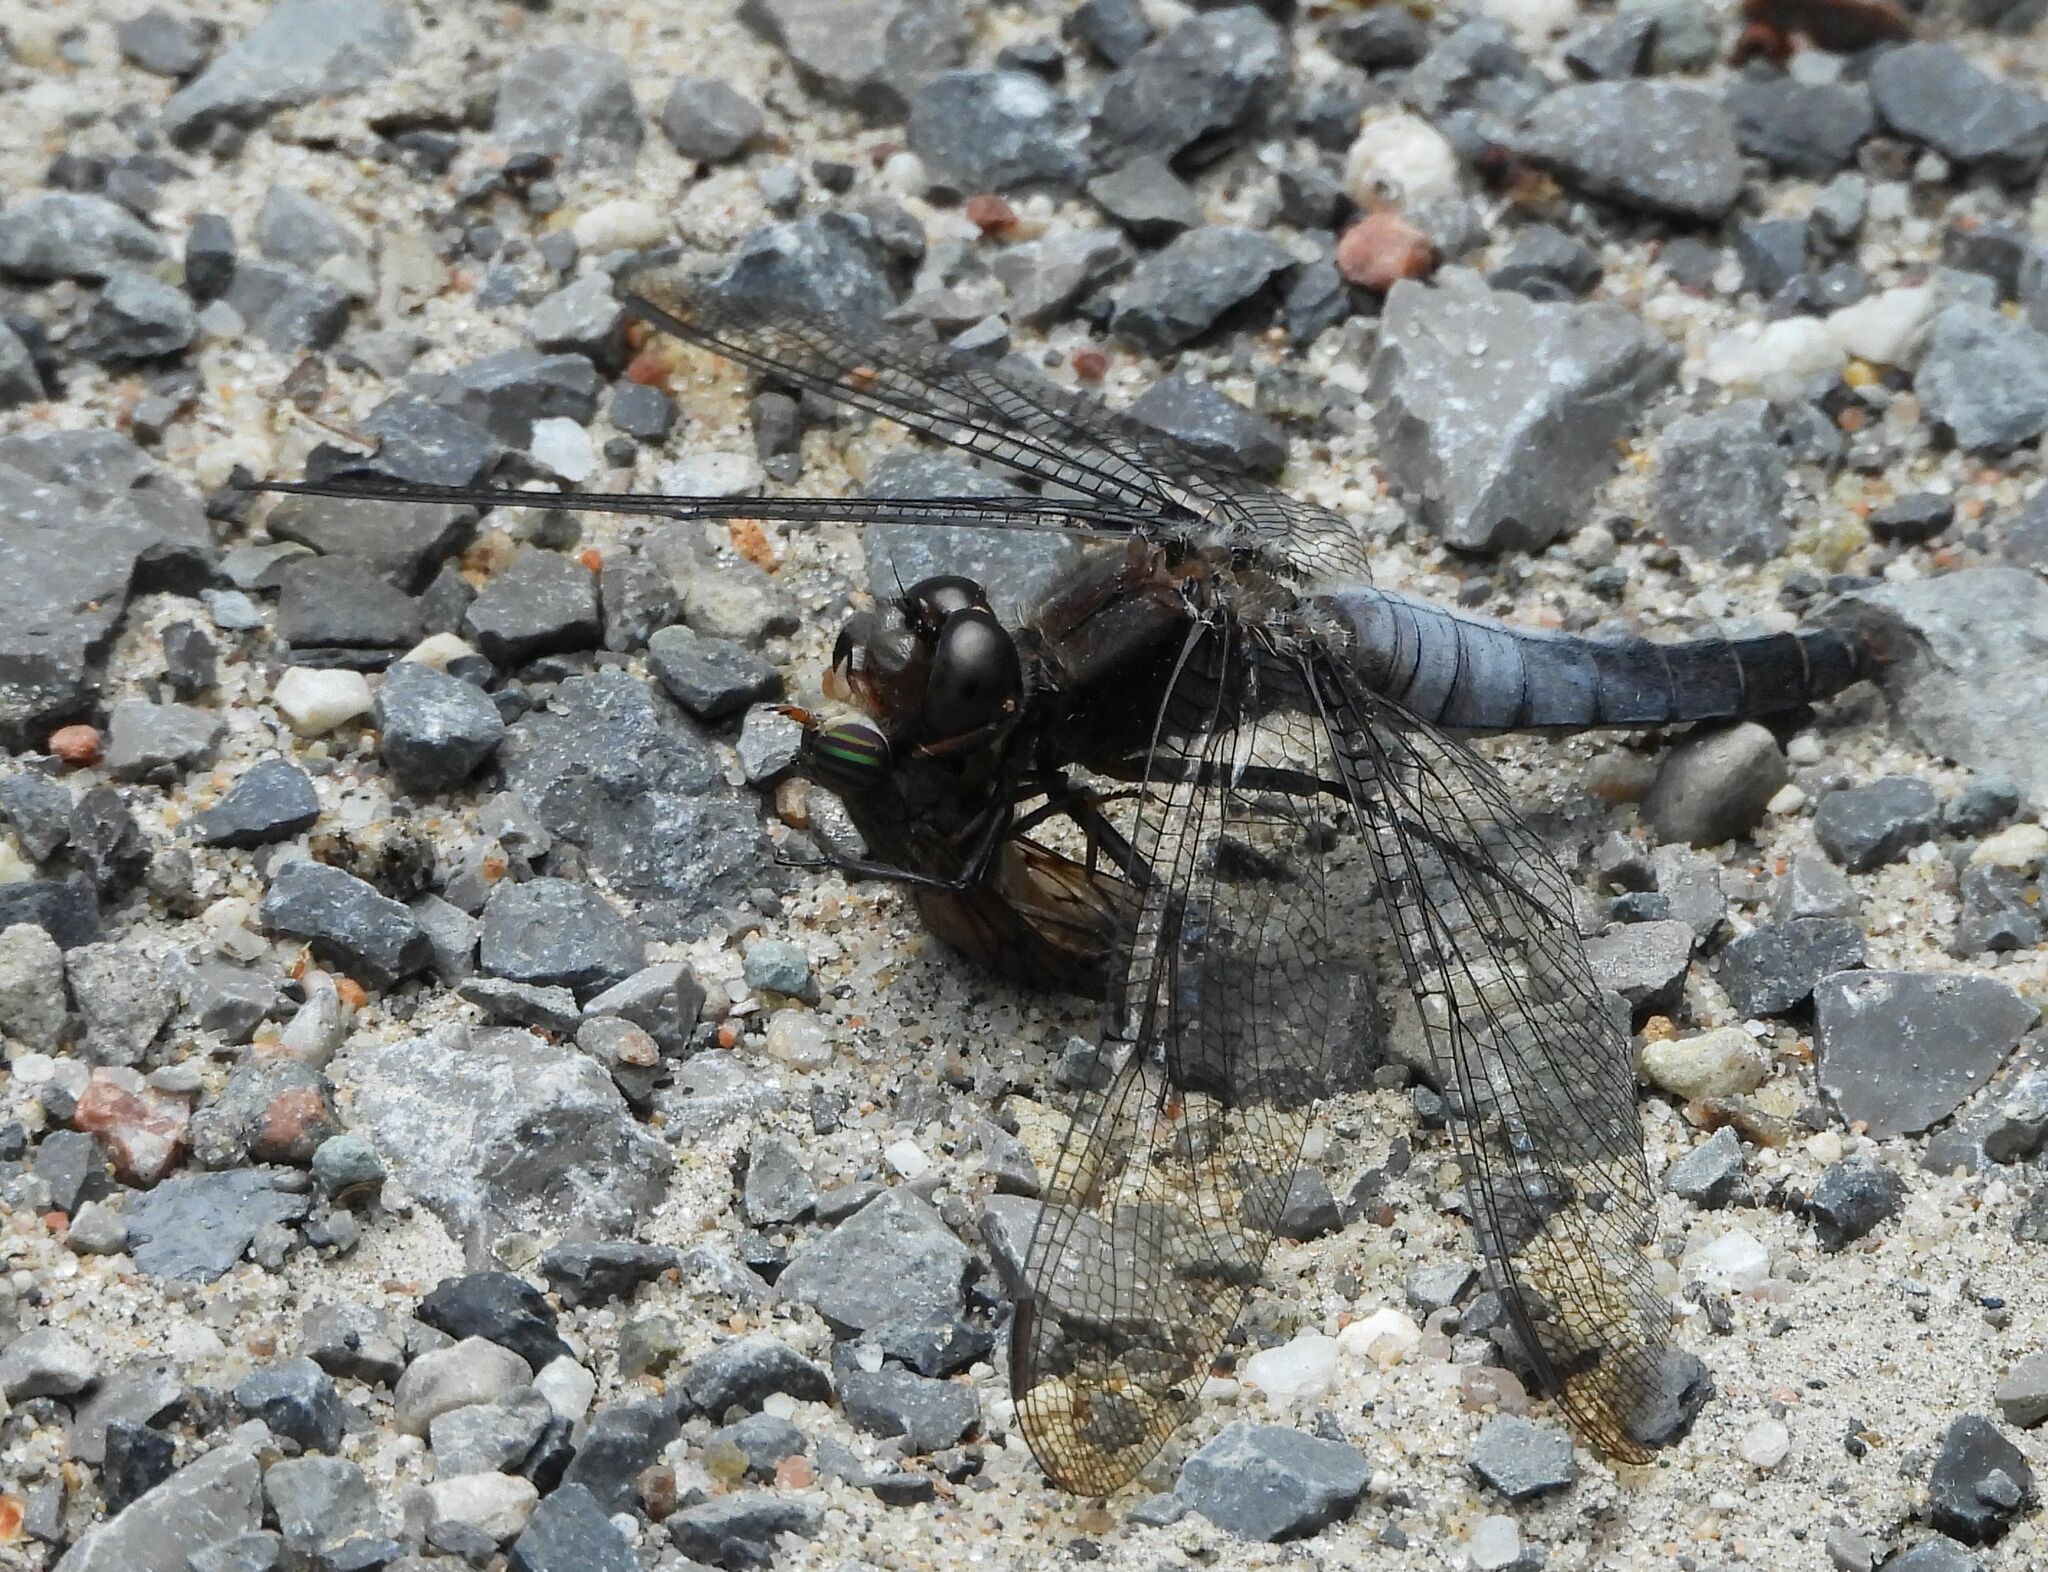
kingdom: Animalia
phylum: Arthropoda
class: Insecta
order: Odonata
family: Libellulidae
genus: Ladona
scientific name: Ladona julia
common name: Chalk-fronted corporal
